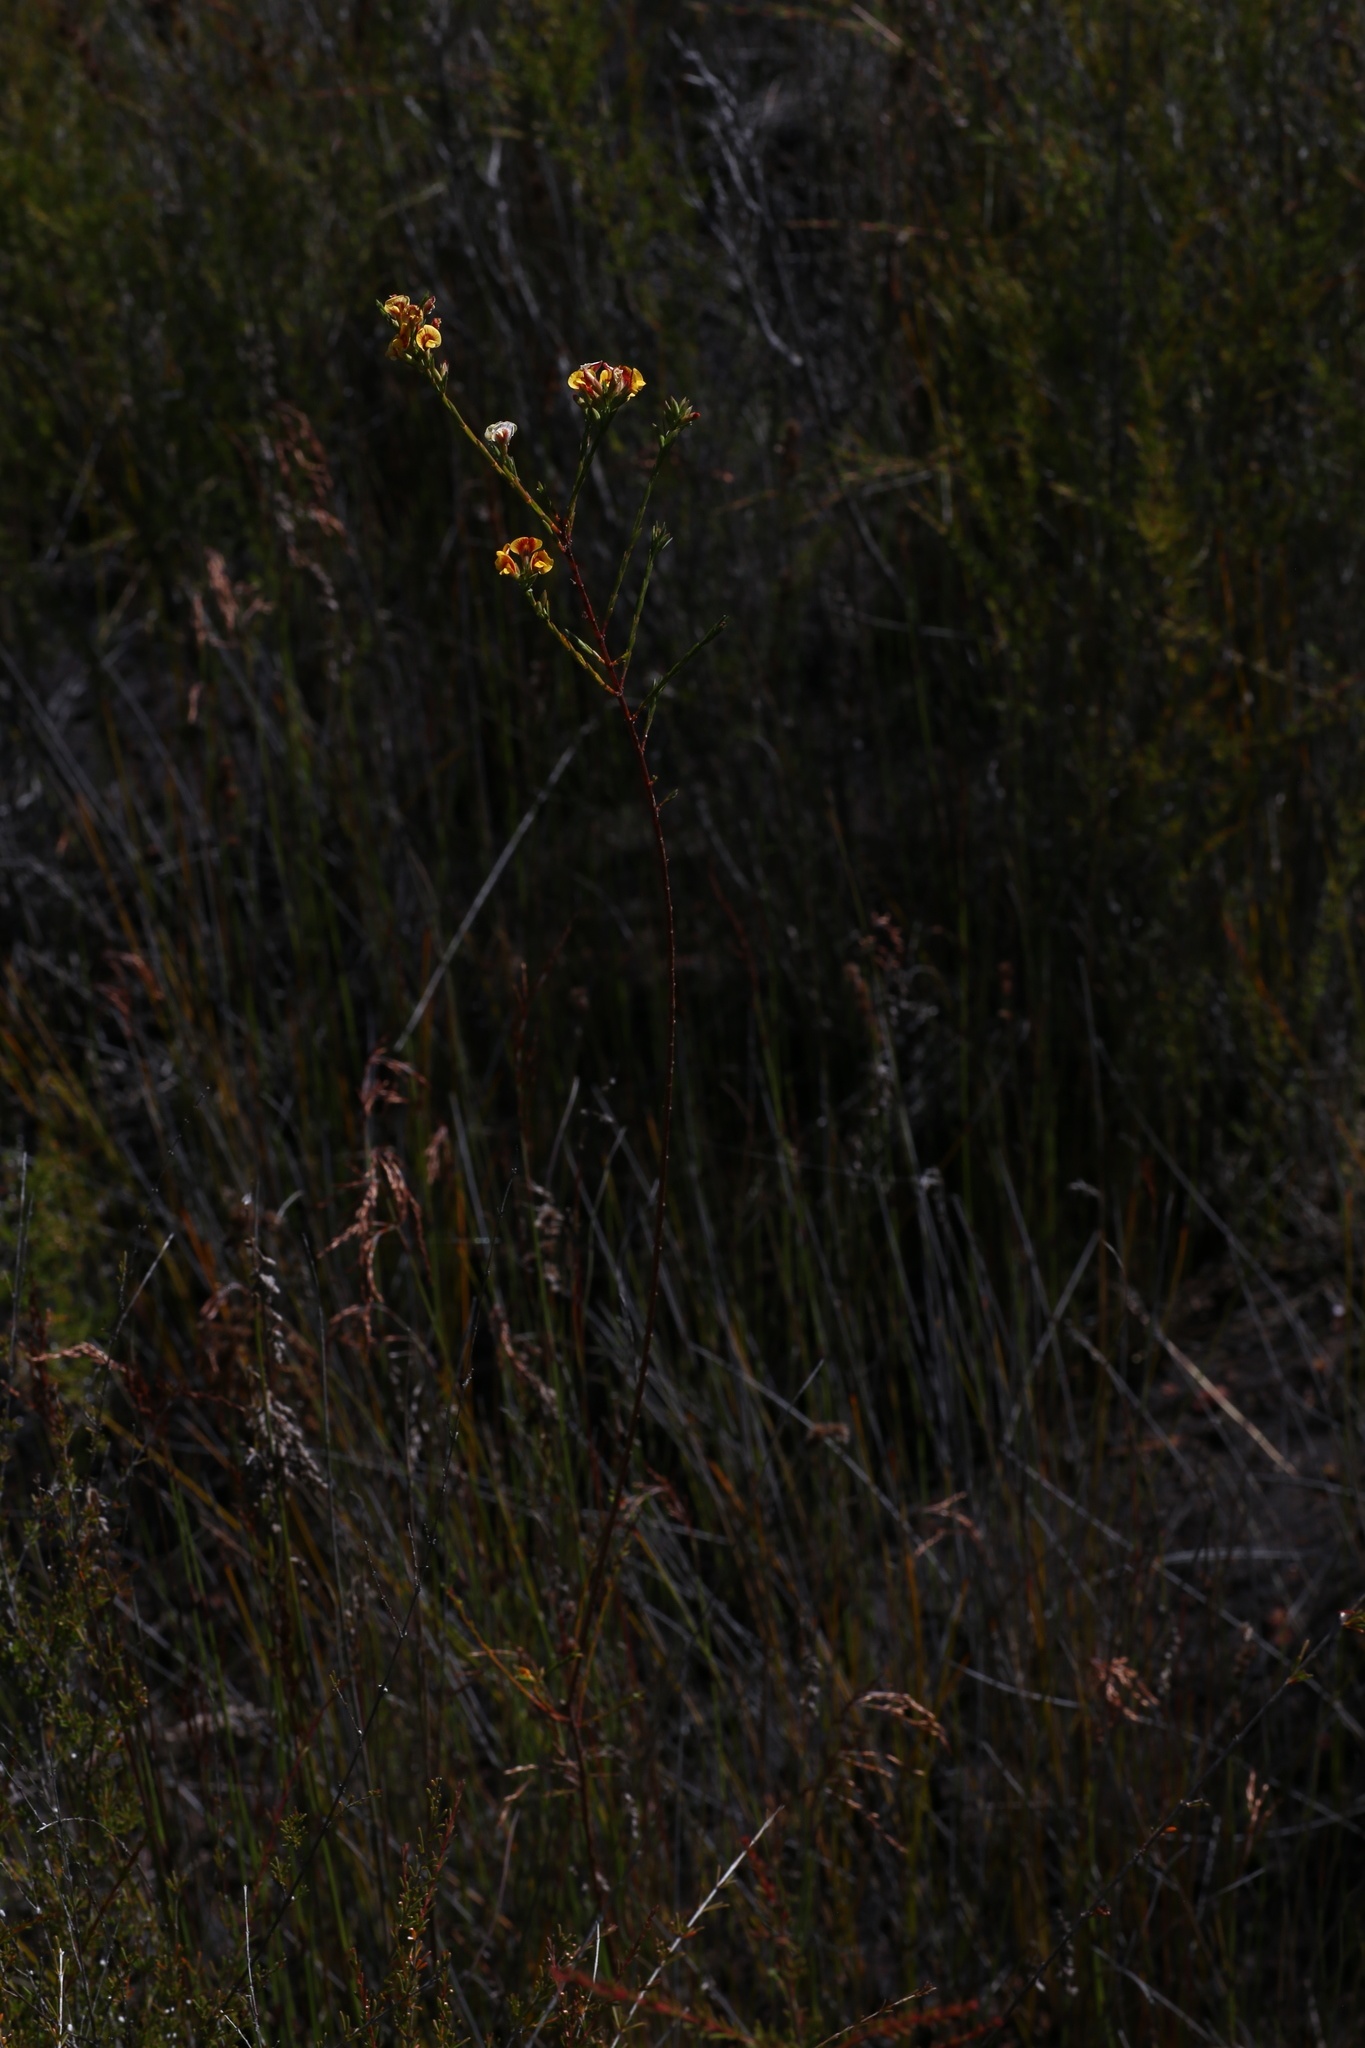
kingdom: Plantae
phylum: Tracheophyta
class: Magnoliopsida
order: Fabales
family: Fabaceae
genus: Eutaxia
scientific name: Eutaxia virgata
